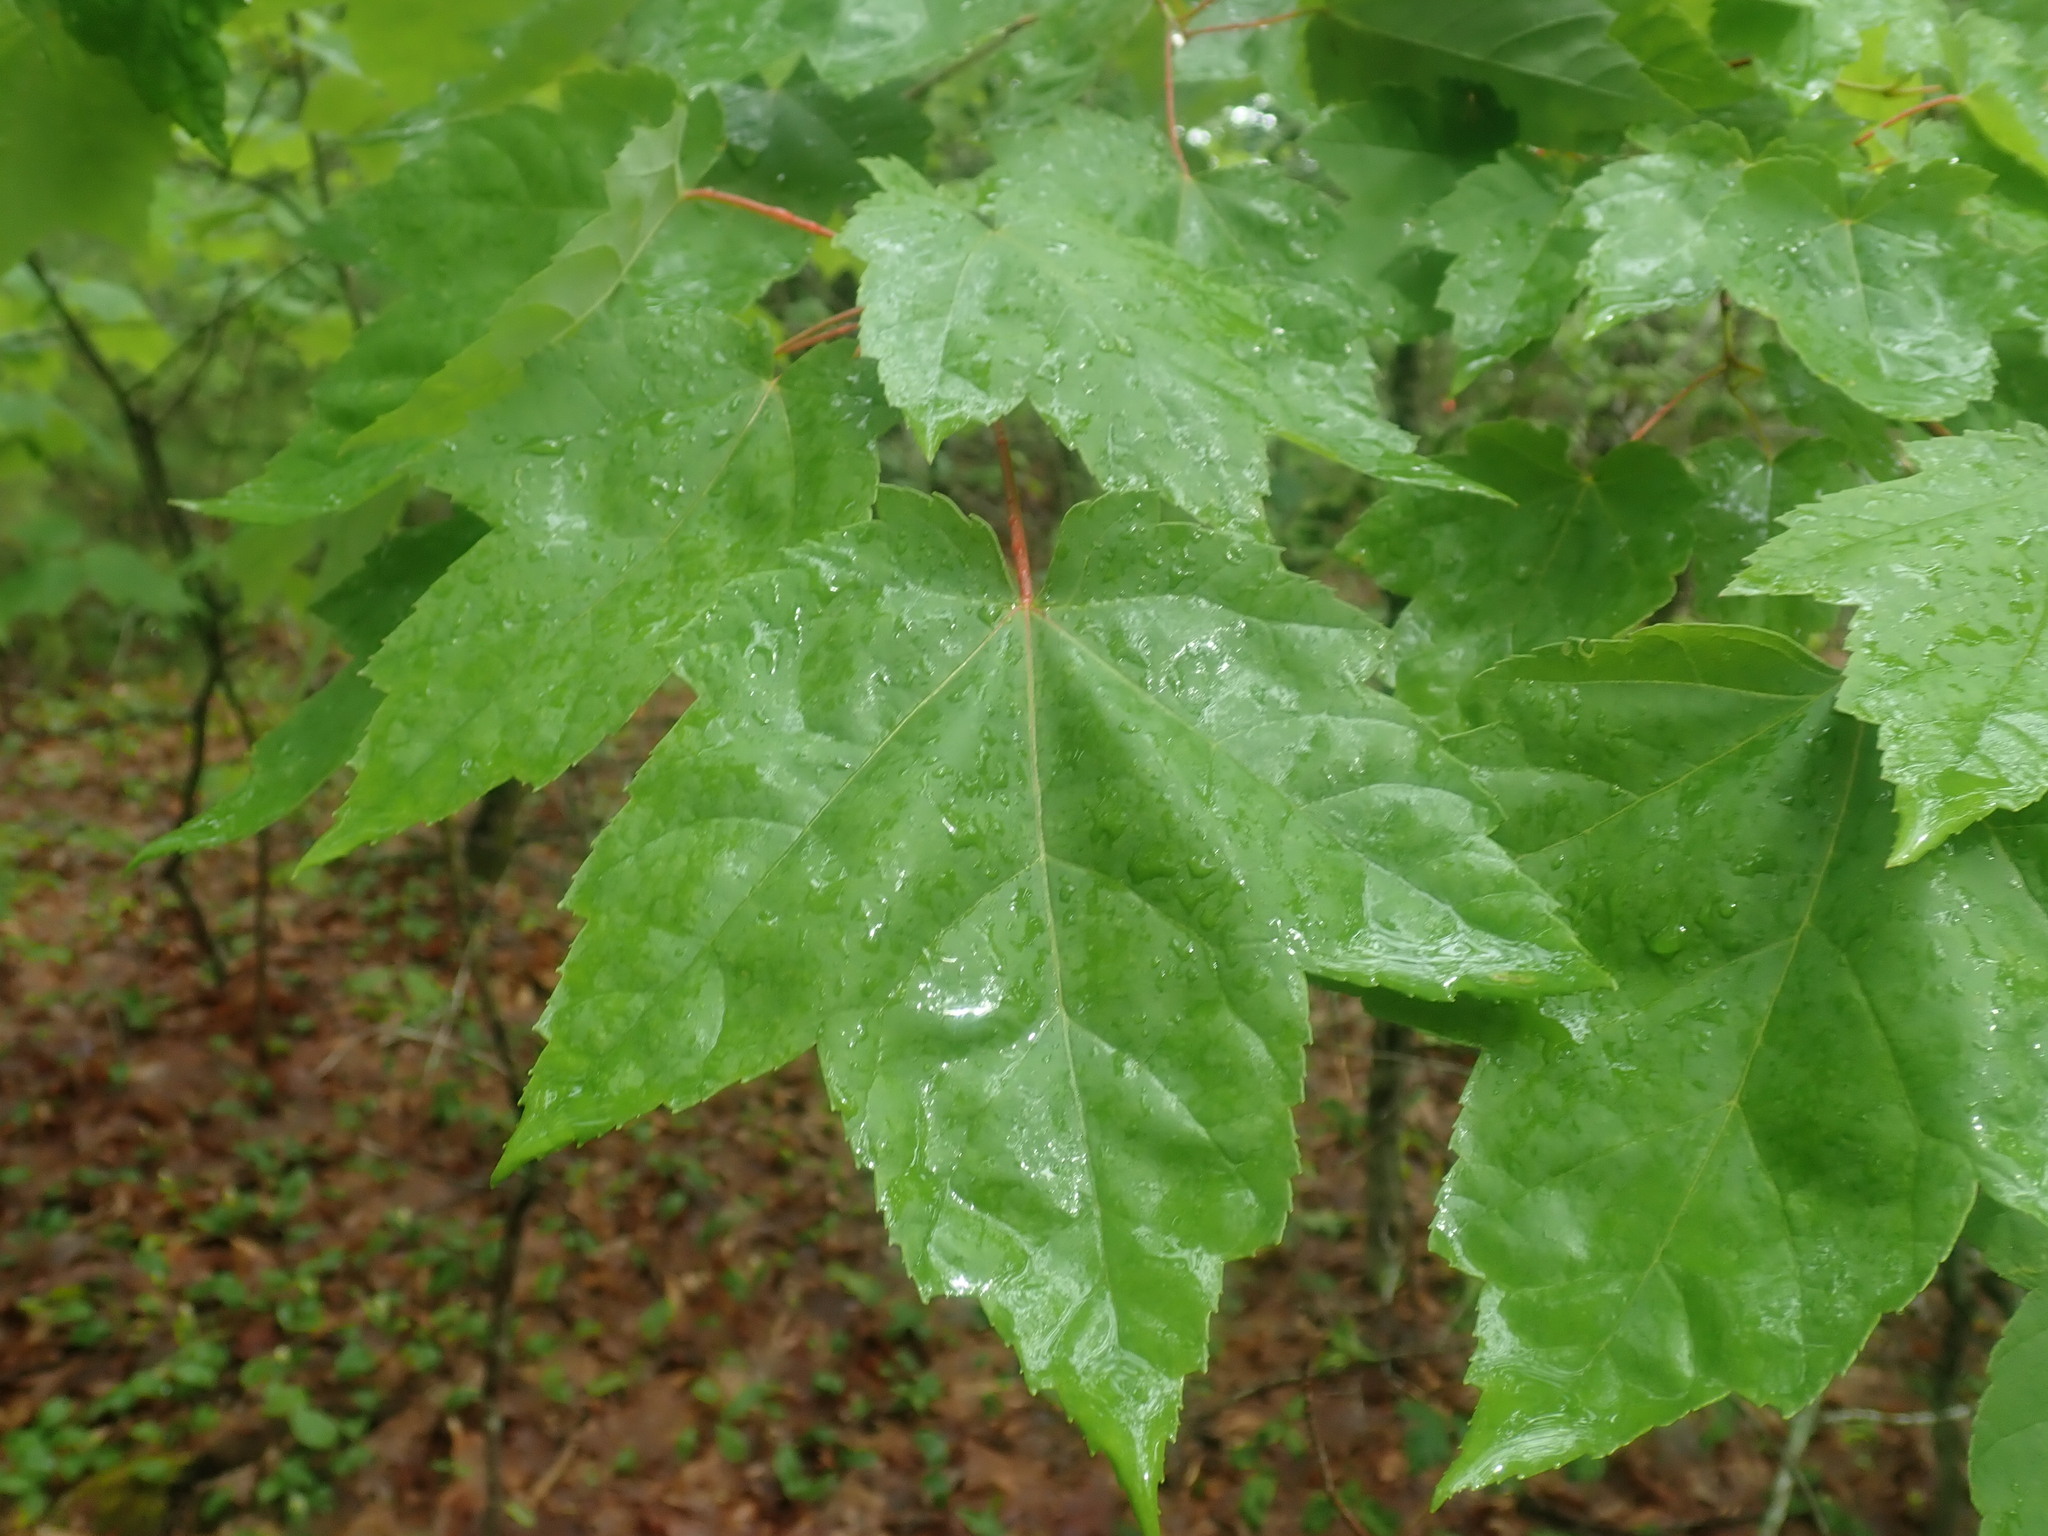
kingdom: Plantae
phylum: Tracheophyta
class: Magnoliopsida
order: Sapindales
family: Sapindaceae
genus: Acer
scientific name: Acer rubrum
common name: Red maple
